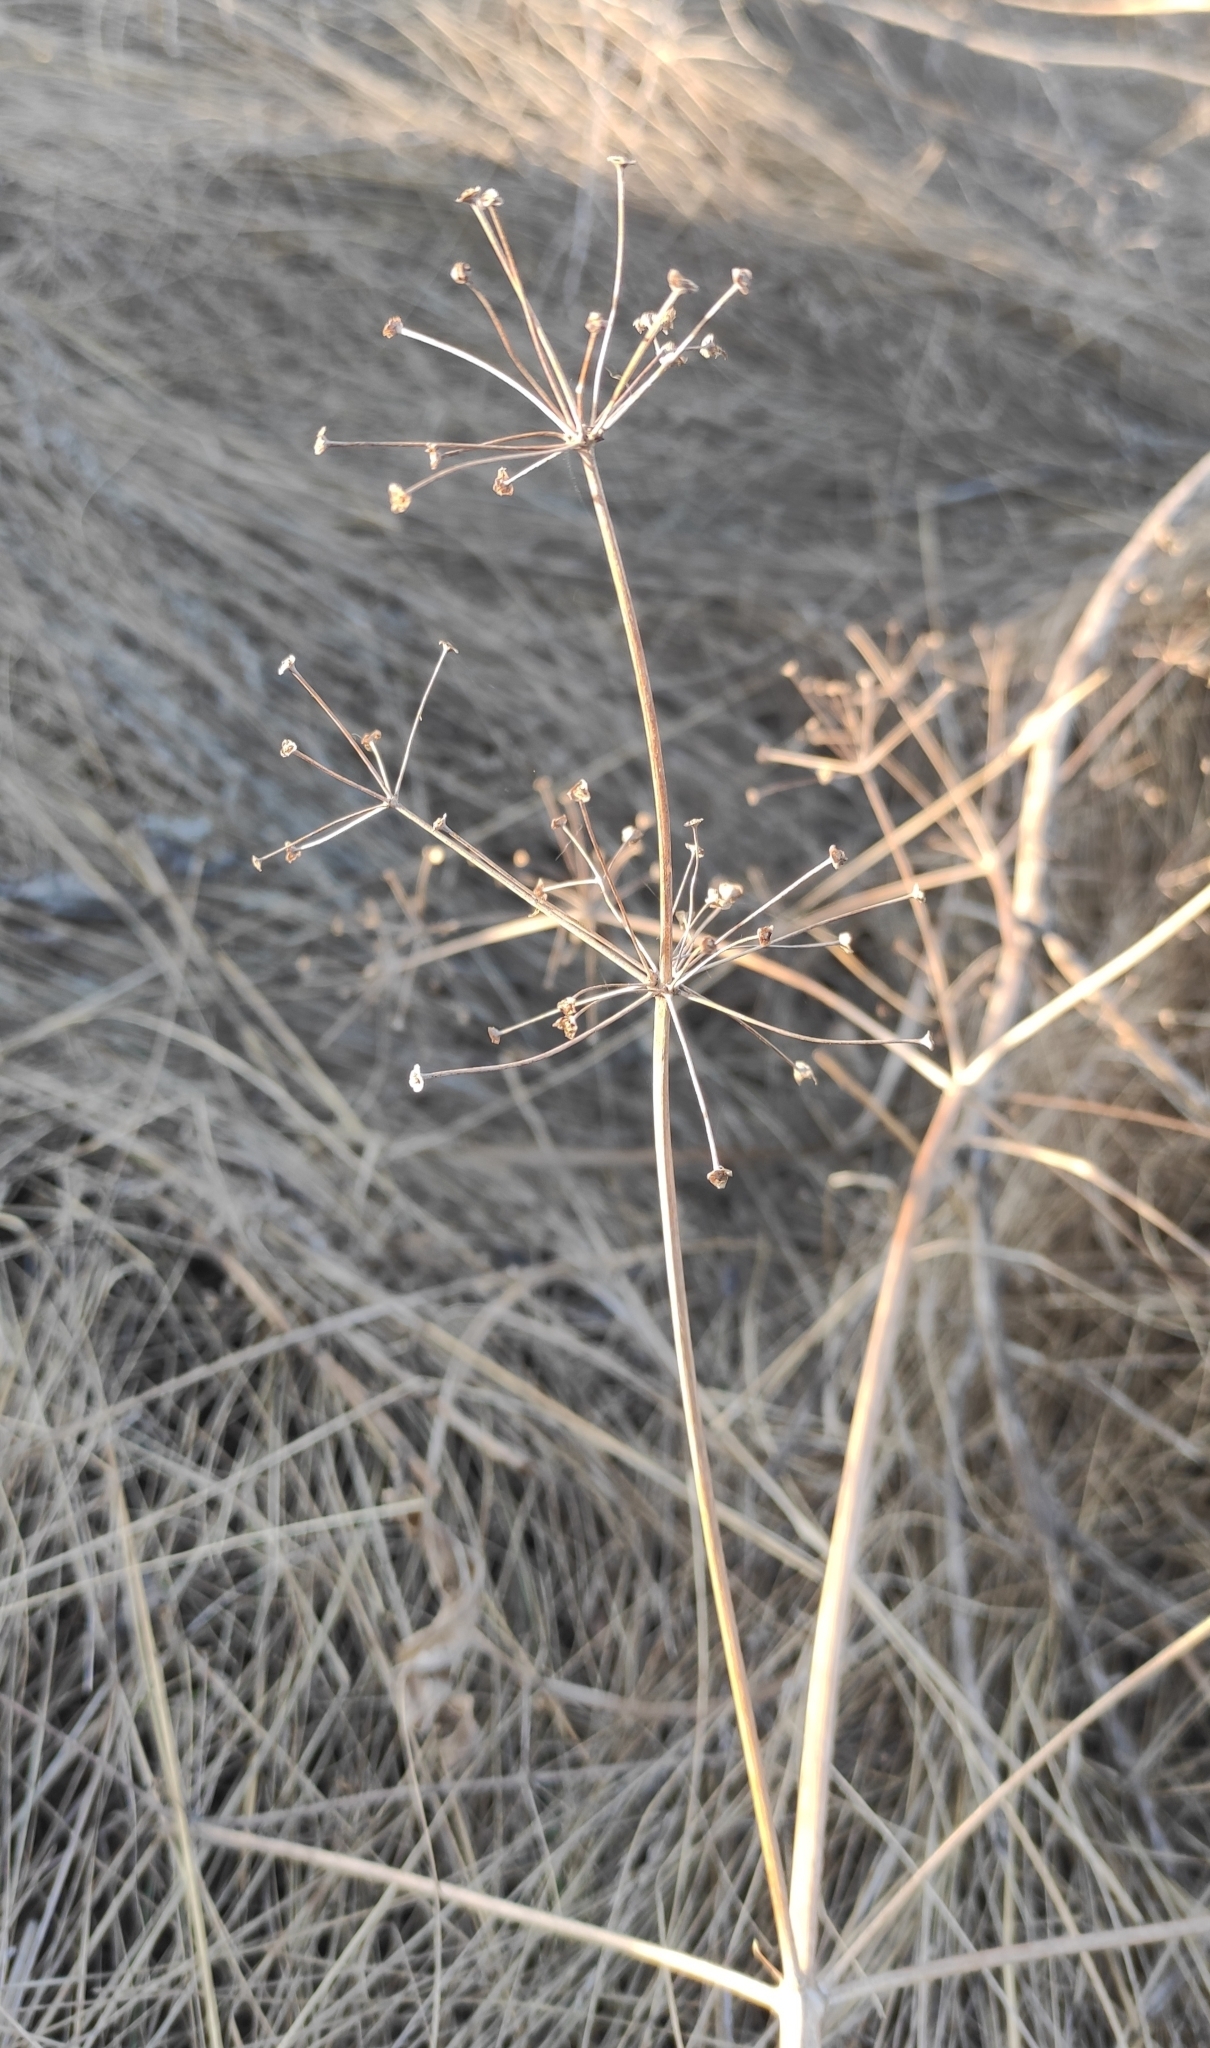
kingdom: Plantae
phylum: Tracheophyta
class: Liliopsida
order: Alismatales
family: Alismataceae
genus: Alisma
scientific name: Alisma plantago-aquatica
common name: Water-plantain
